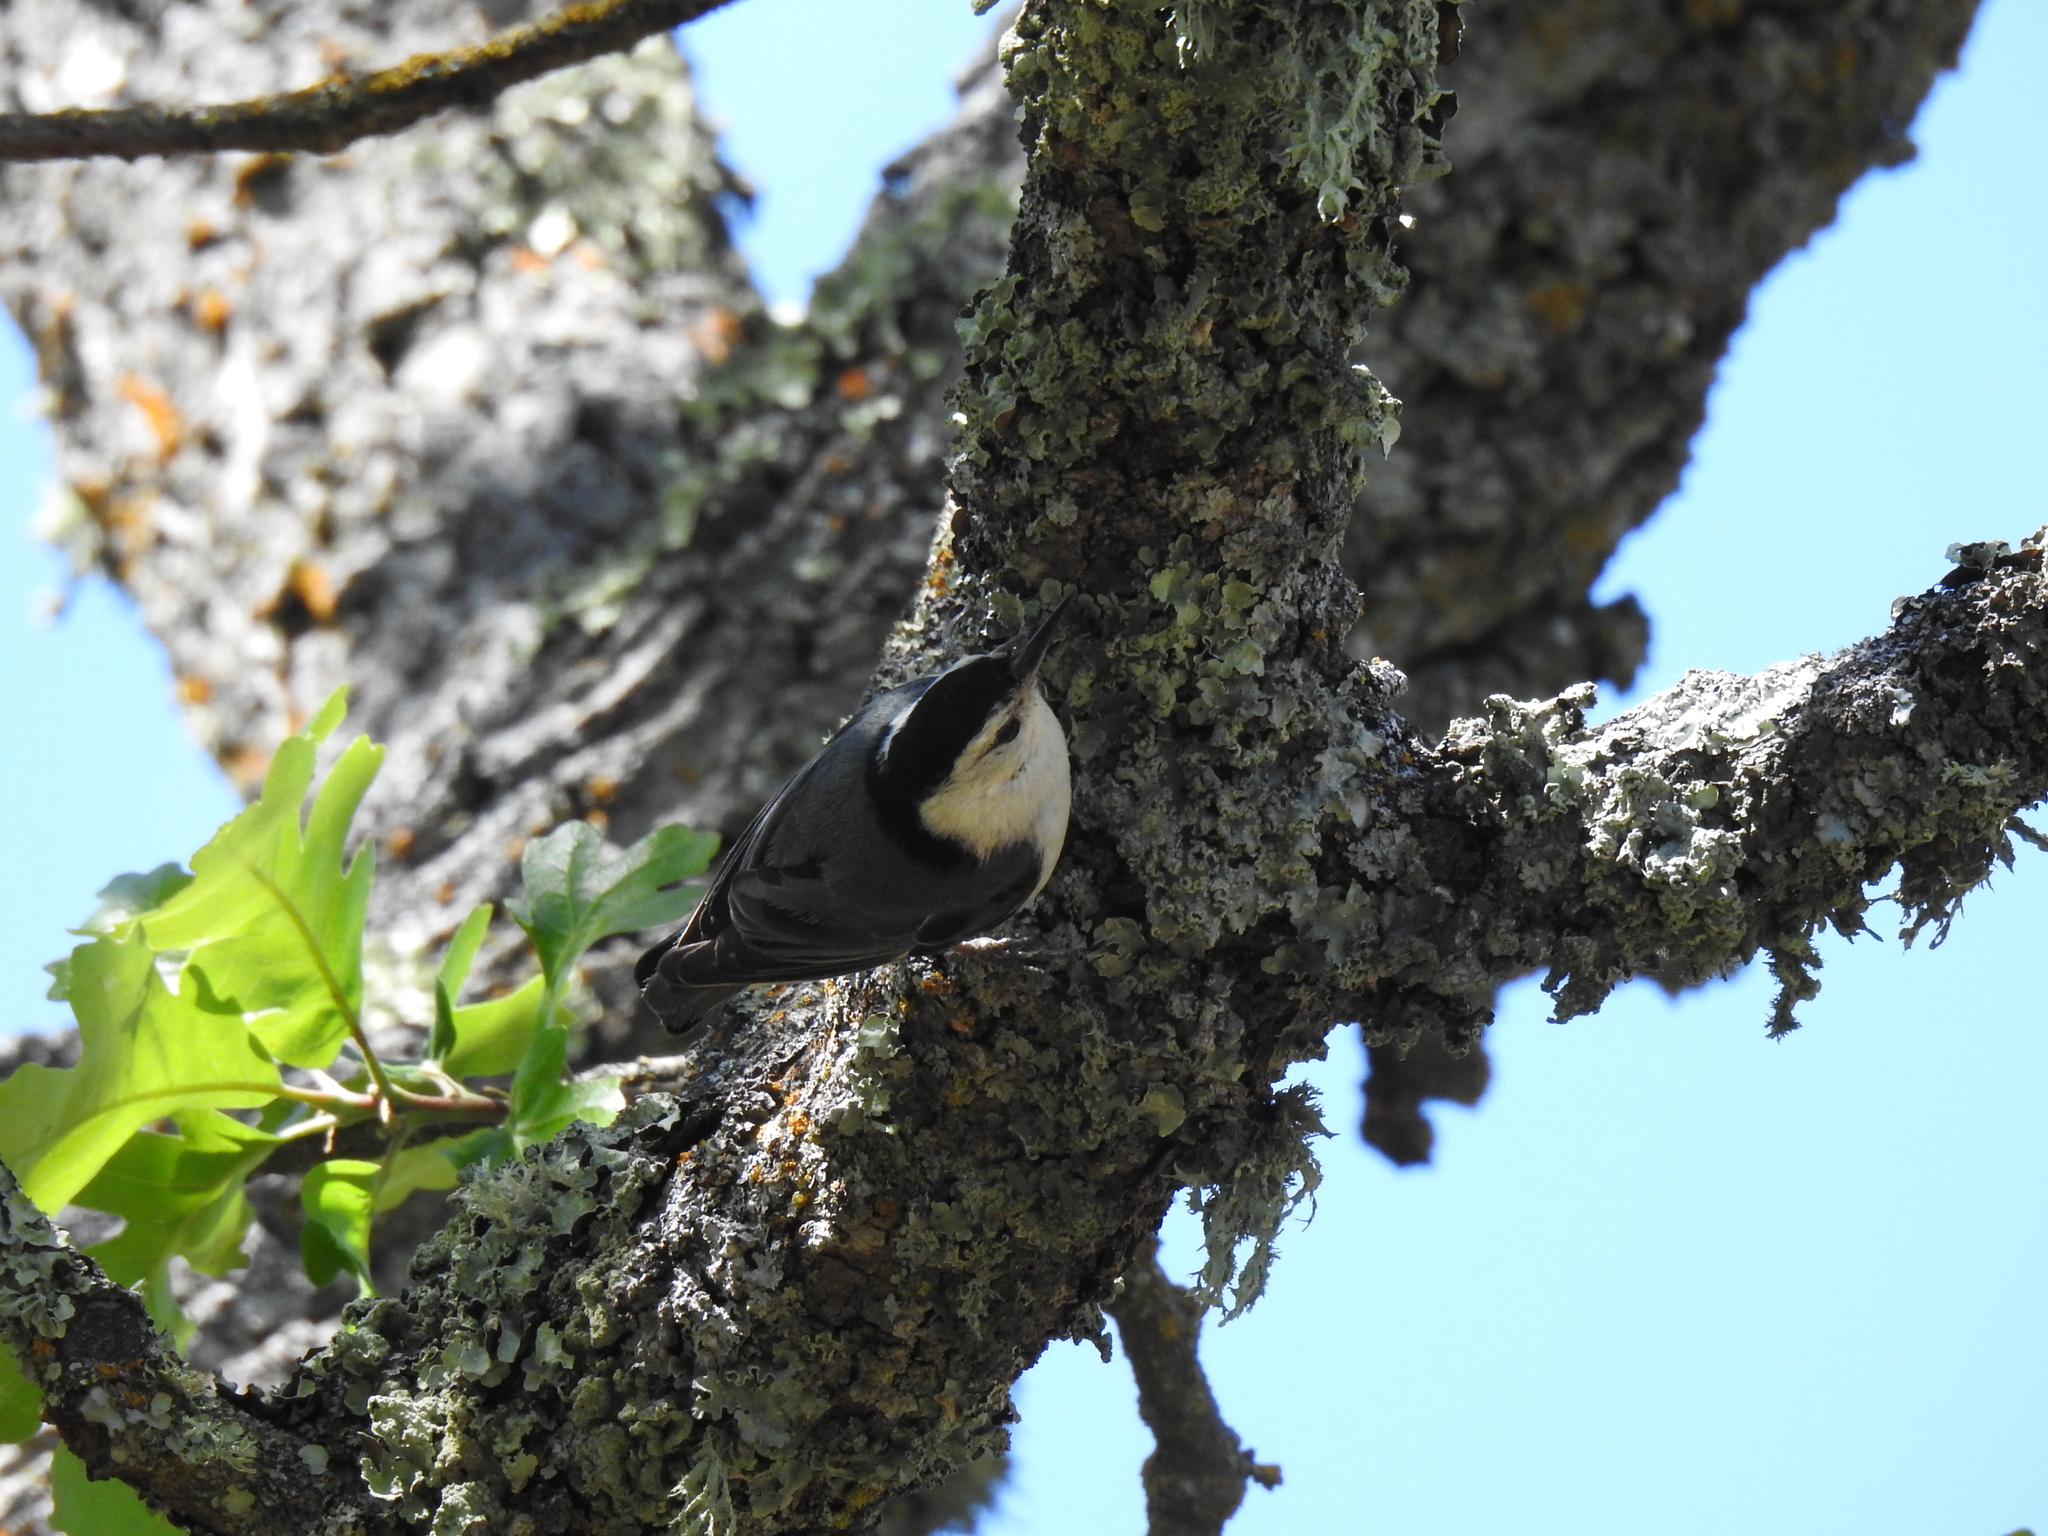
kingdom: Animalia
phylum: Chordata
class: Aves
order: Passeriformes
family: Sittidae
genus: Sitta
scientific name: Sitta carolinensis
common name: White-breasted nuthatch
